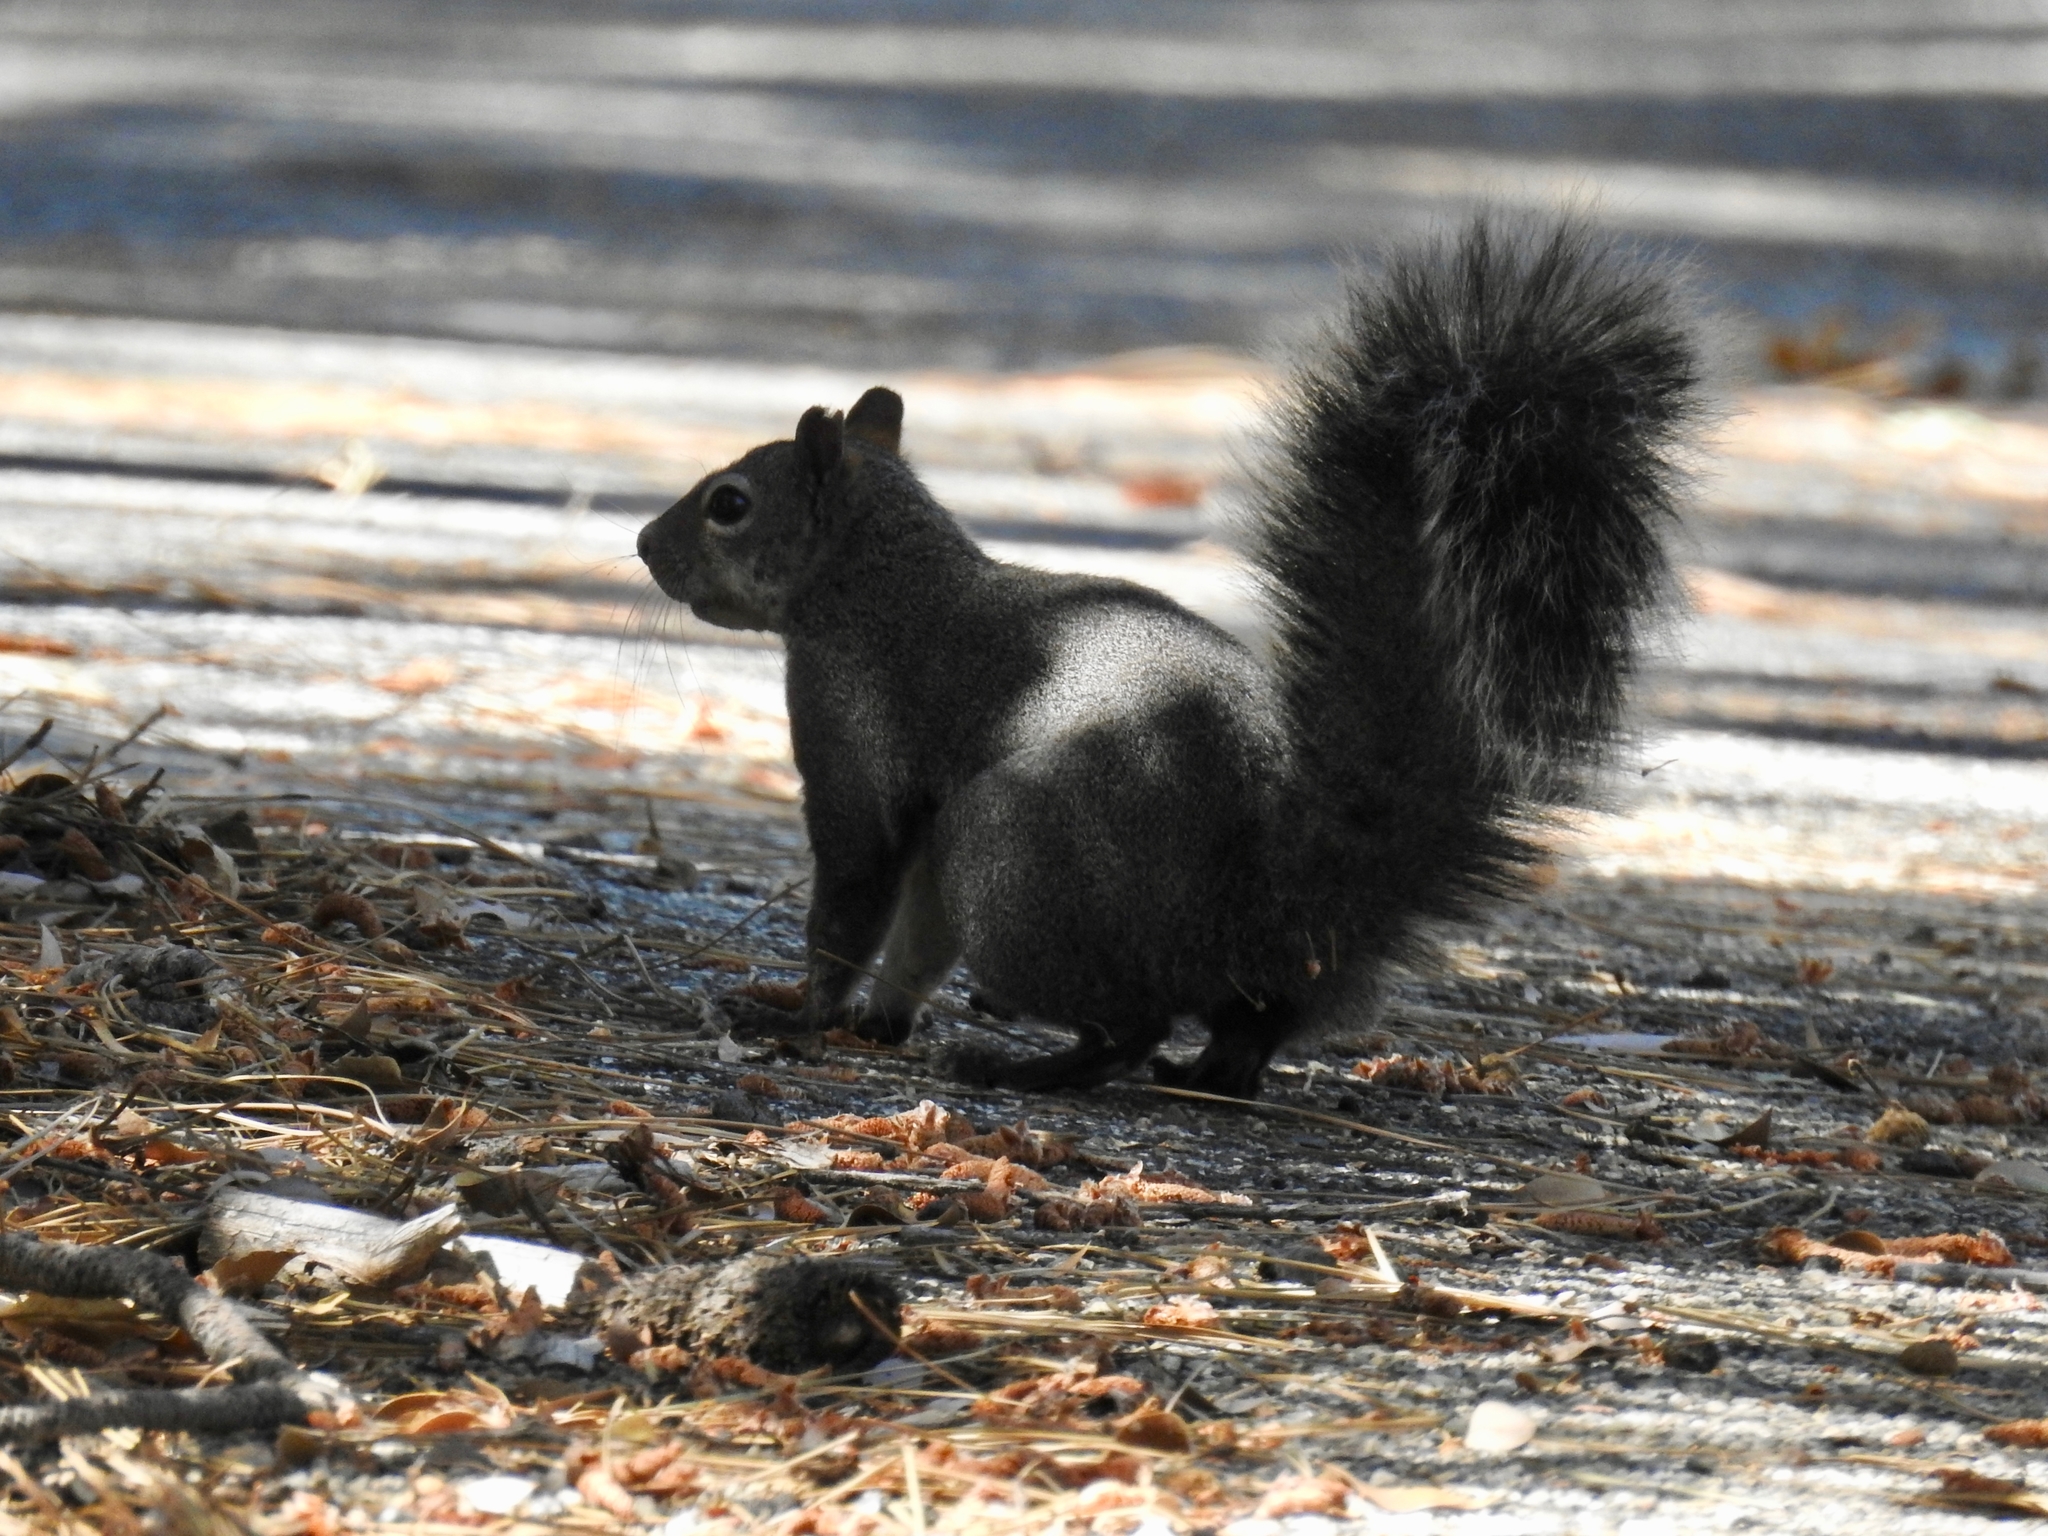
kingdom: Animalia
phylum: Chordata
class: Mammalia
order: Rodentia
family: Sciuridae
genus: Sciurus
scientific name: Sciurus griseus
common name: Western gray squirrel
